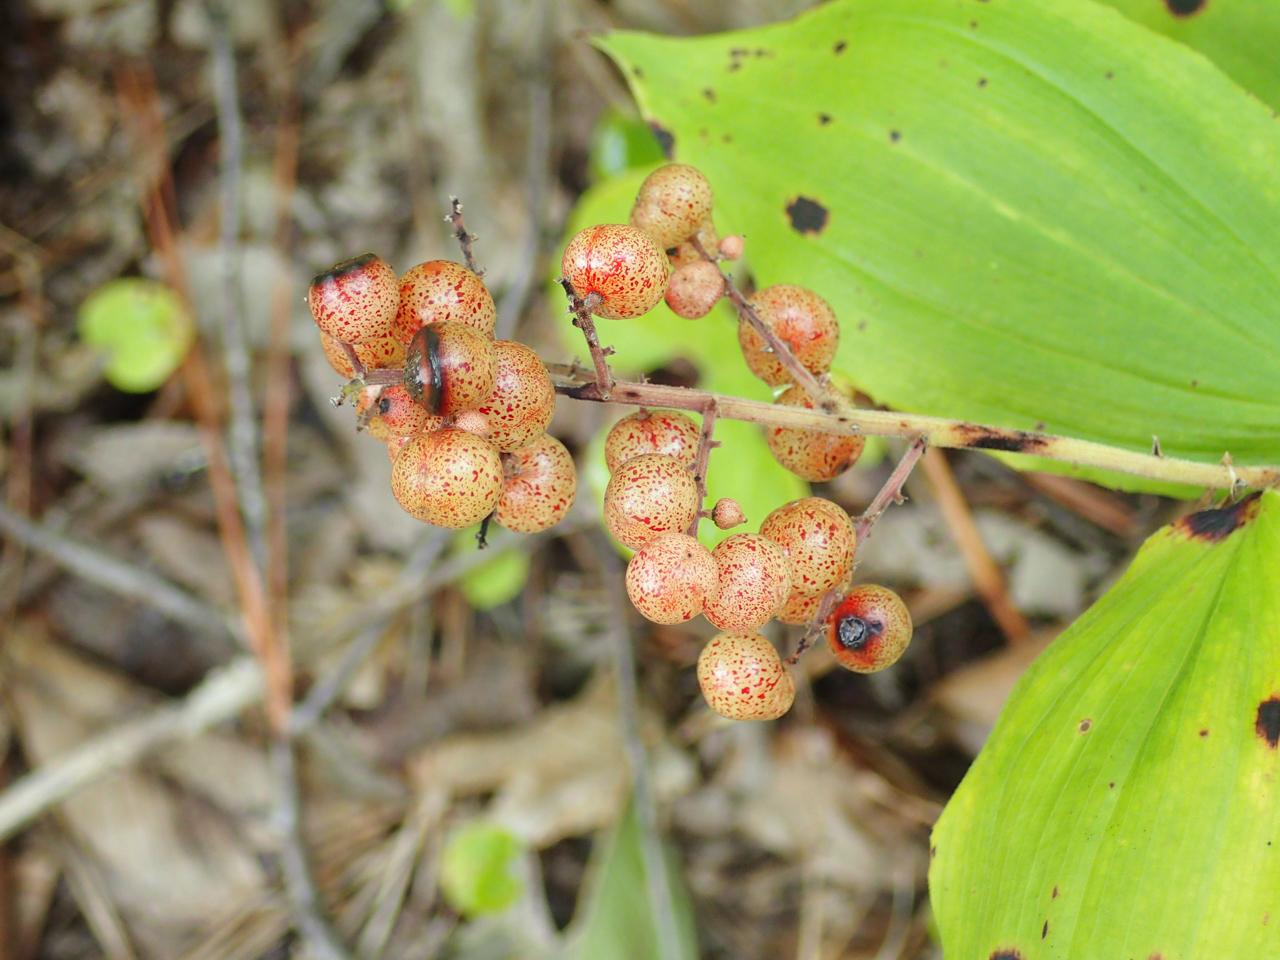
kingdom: Plantae
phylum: Tracheophyta
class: Liliopsida
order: Asparagales
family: Asparagaceae
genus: Maianthemum
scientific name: Maianthemum racemosum
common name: False spikenard
